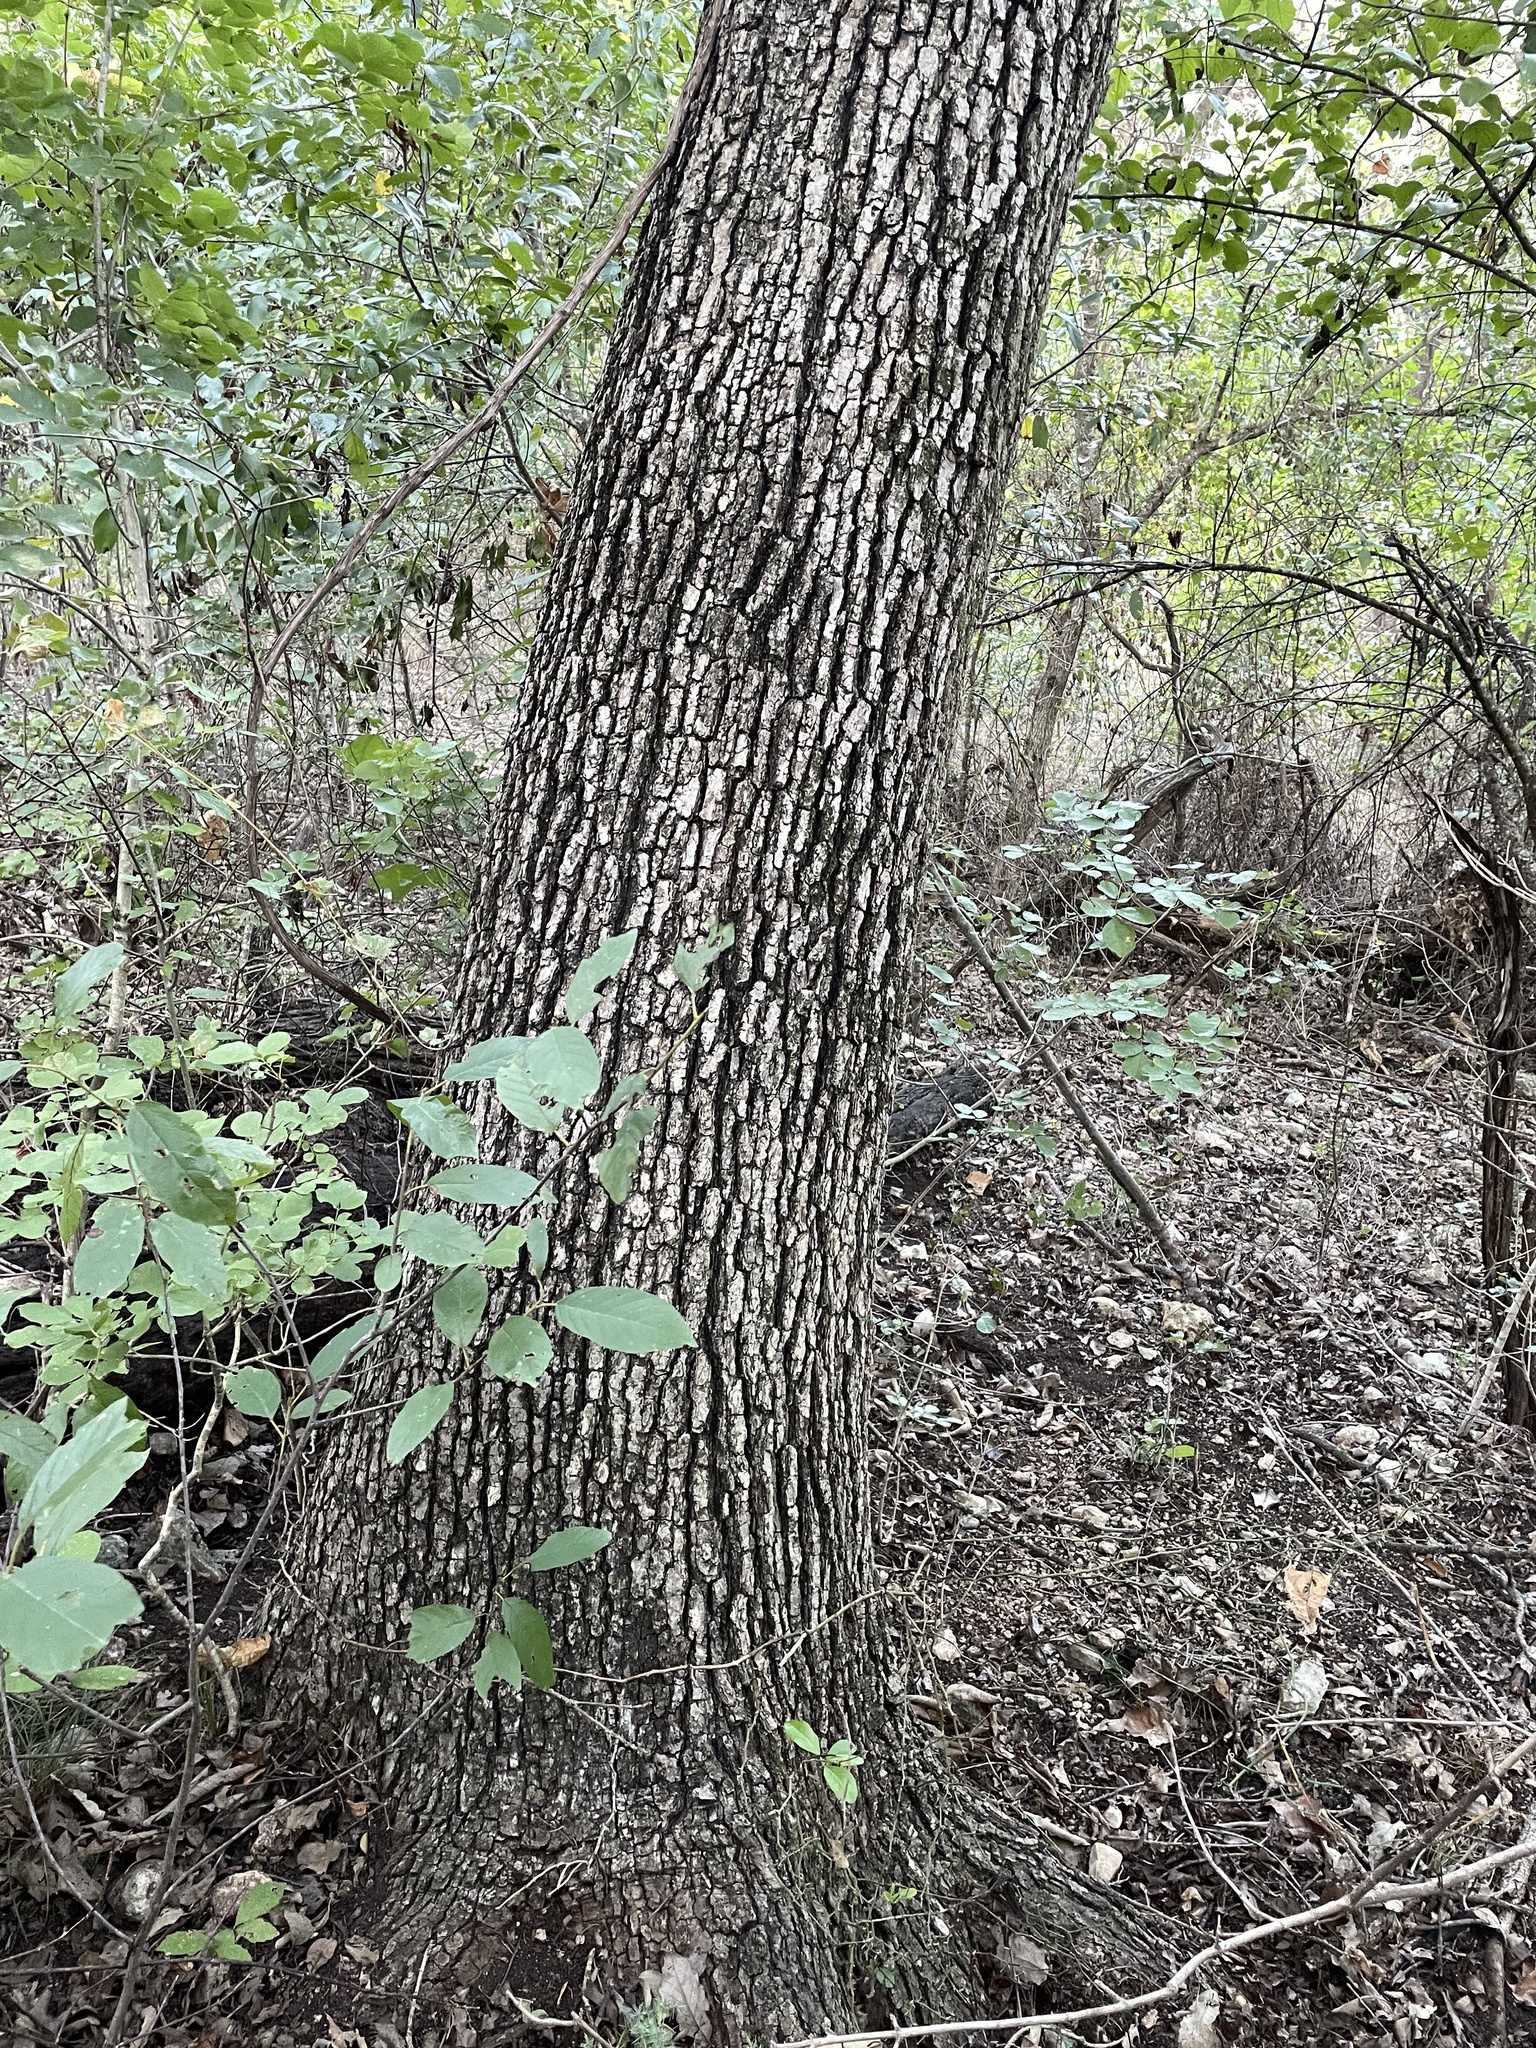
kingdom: Plantae
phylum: Tracheophyta
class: Magnoliopsida
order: Fagales
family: Fagaceae
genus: Quercus
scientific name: Quercus muehlenbergii
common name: Chinkapin oak
